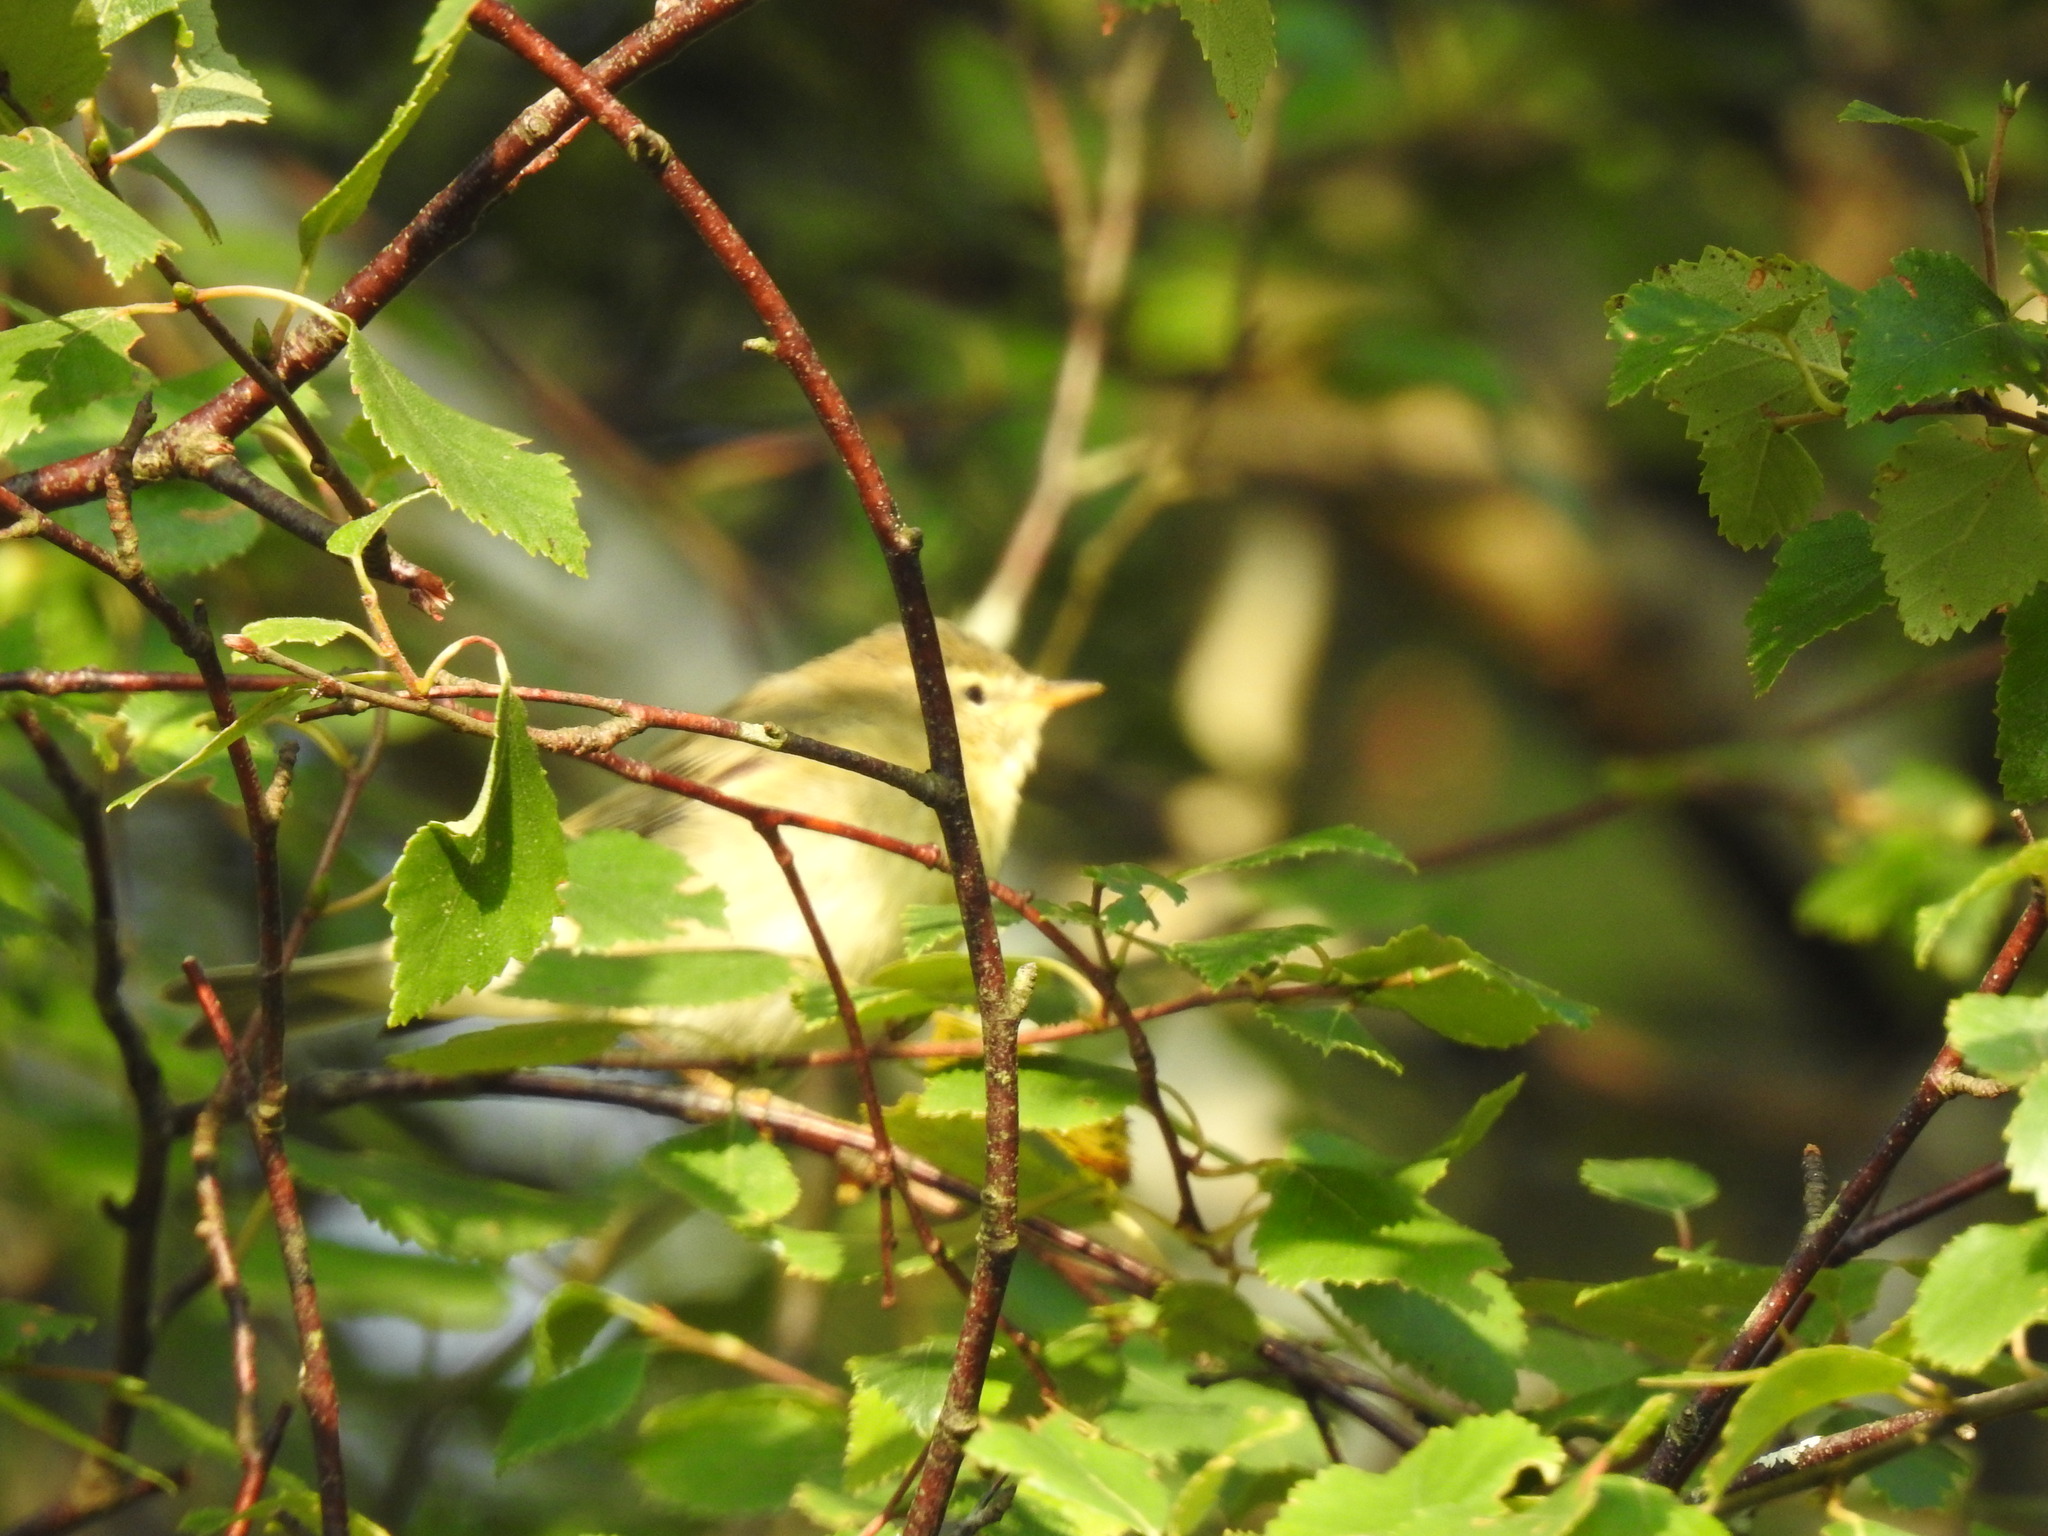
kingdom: Animalia
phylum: Chordata
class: Aves
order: Passeriformes
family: Phylloscopidae
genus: Phylloscopus
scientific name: Phylloscopus trochilus
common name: Willow warbler
